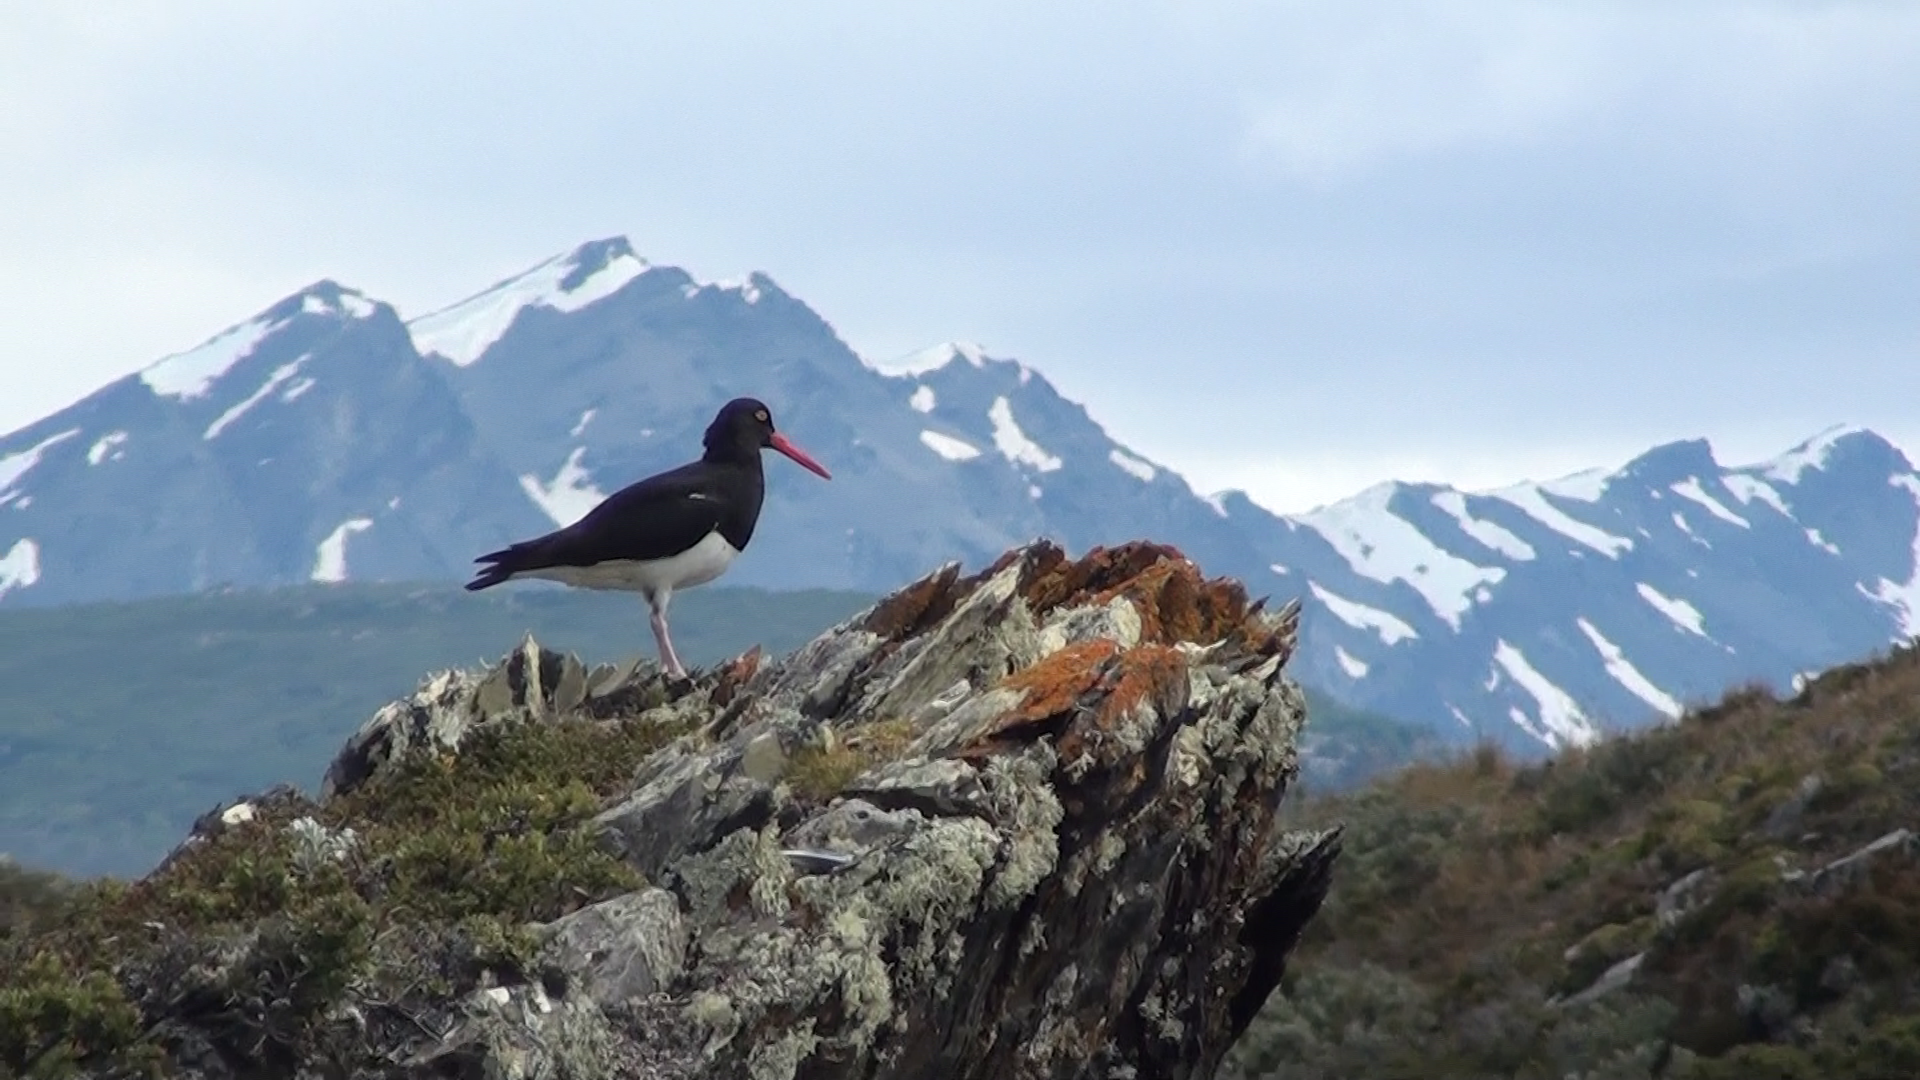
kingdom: Animalia
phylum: Chordata
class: Aves
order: Charadriiformes
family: Haematopodidae
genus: Haematopus
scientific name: Haematopus leucopodus
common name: Magellanic oystercatcher
